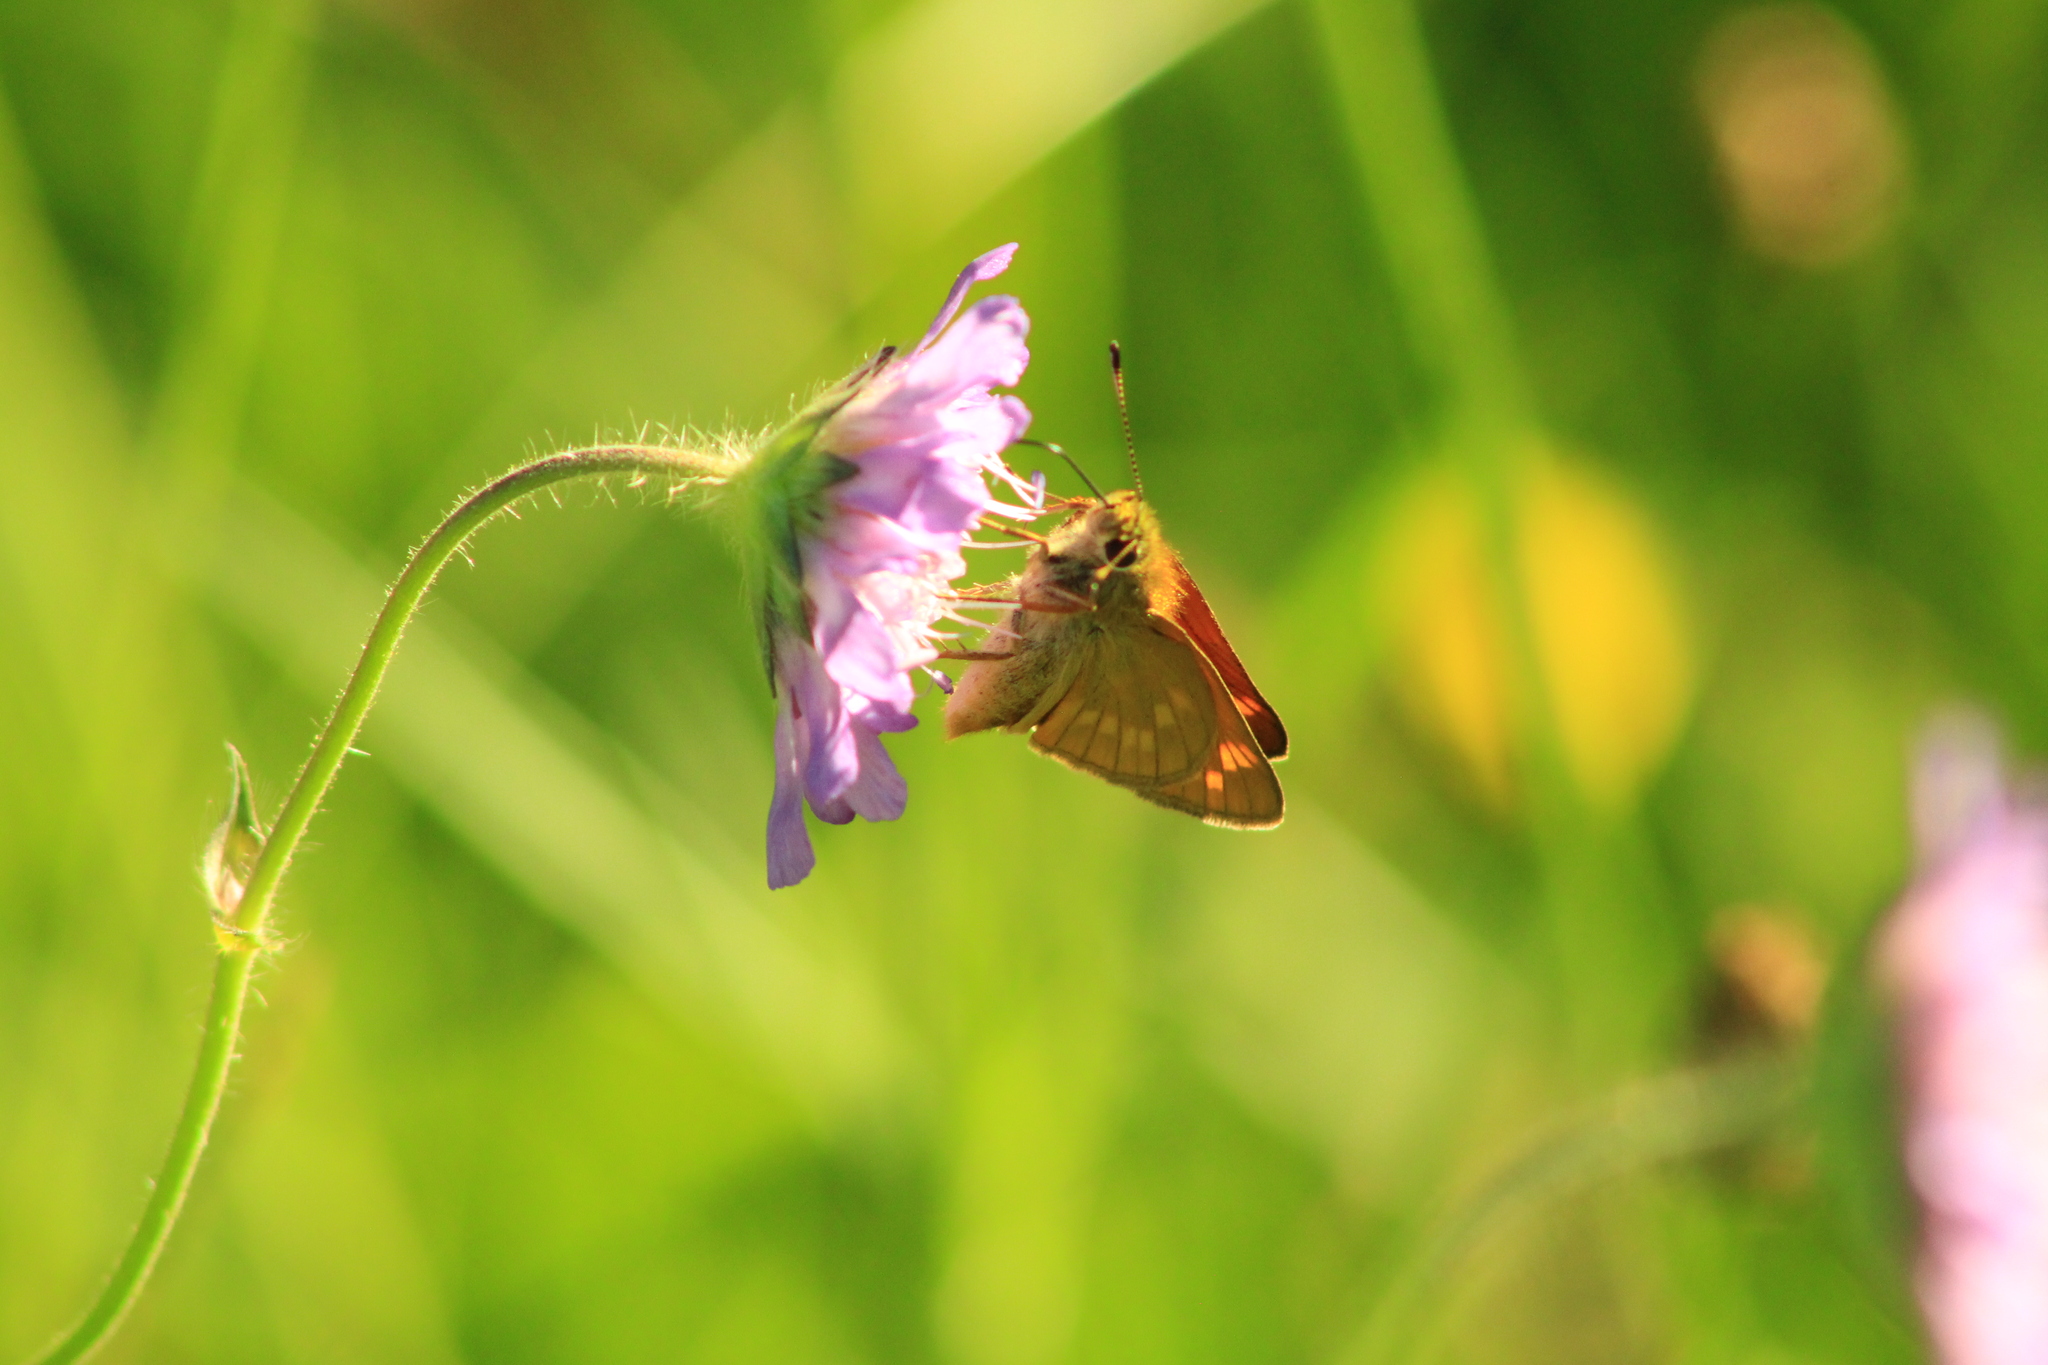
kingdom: Animalia
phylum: Arthropoda
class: Insecta
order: Lepidoptera
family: Hesperiidae
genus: Ochlodes
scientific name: Ochlodes venata
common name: Large skipper
